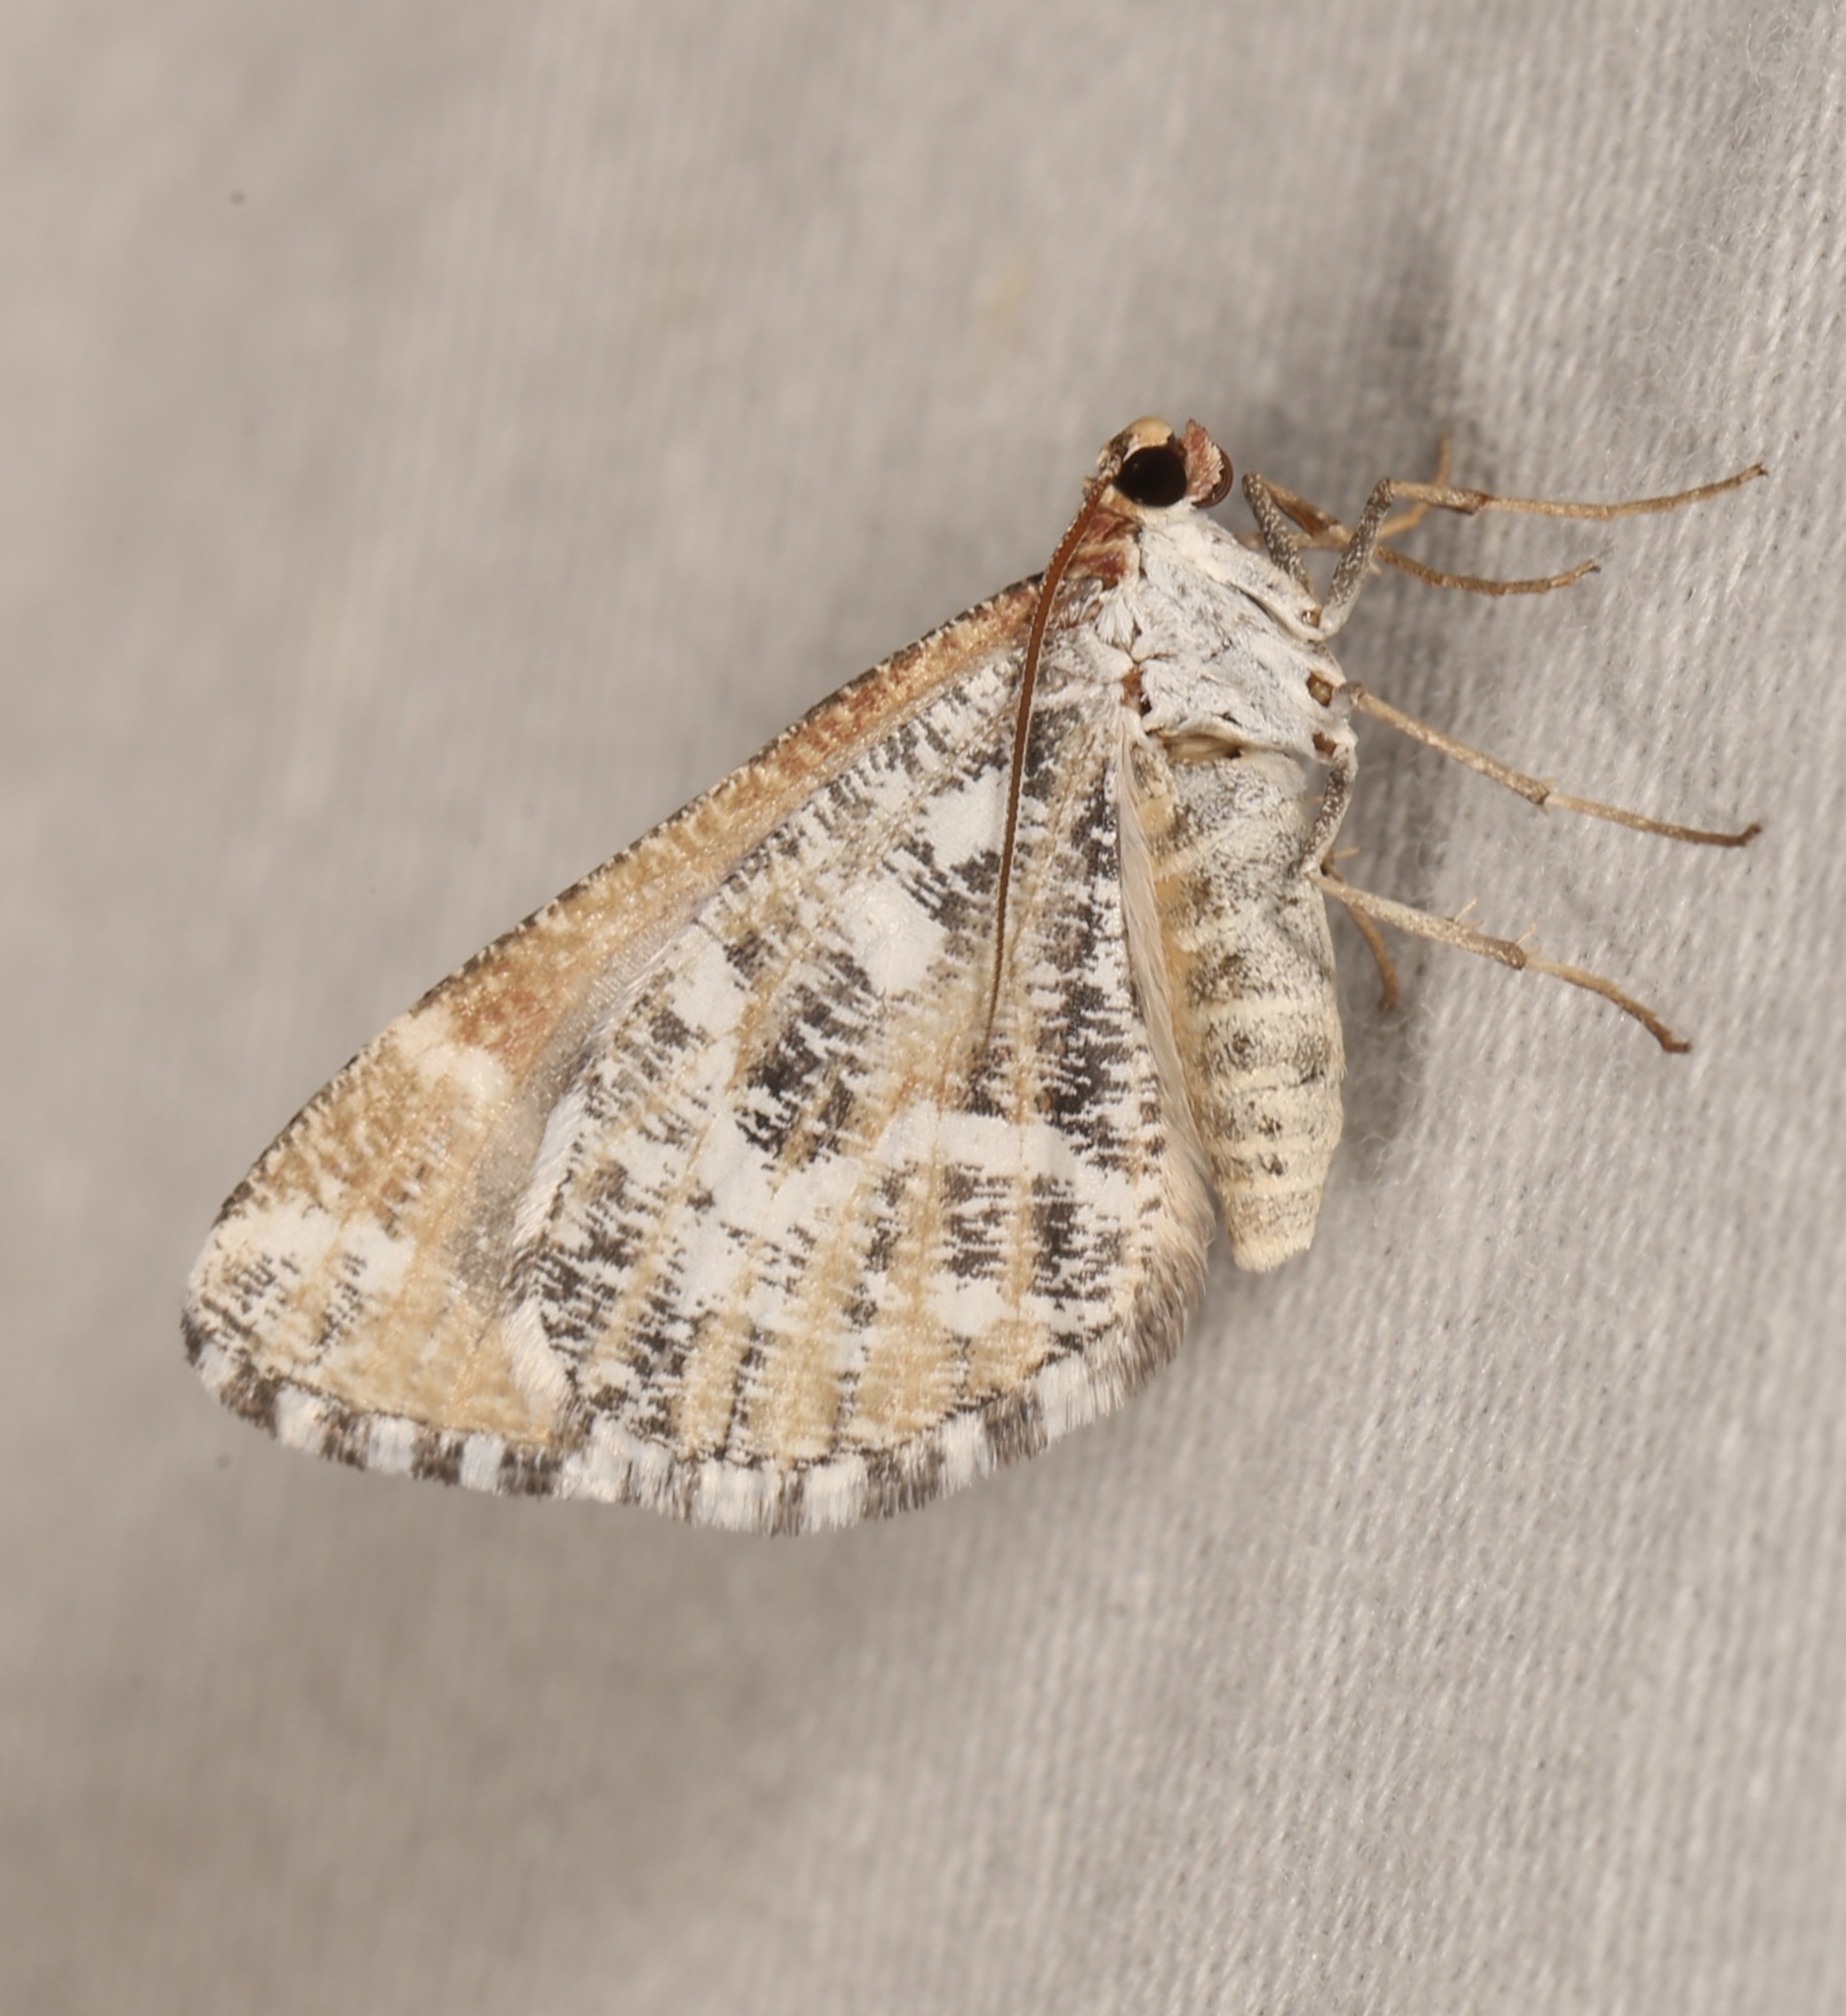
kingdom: Animalia
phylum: Arthropoda
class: Insecta
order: Lepidoptera
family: Geometridae
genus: Stamnodes
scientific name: Stamnodes marmorata
